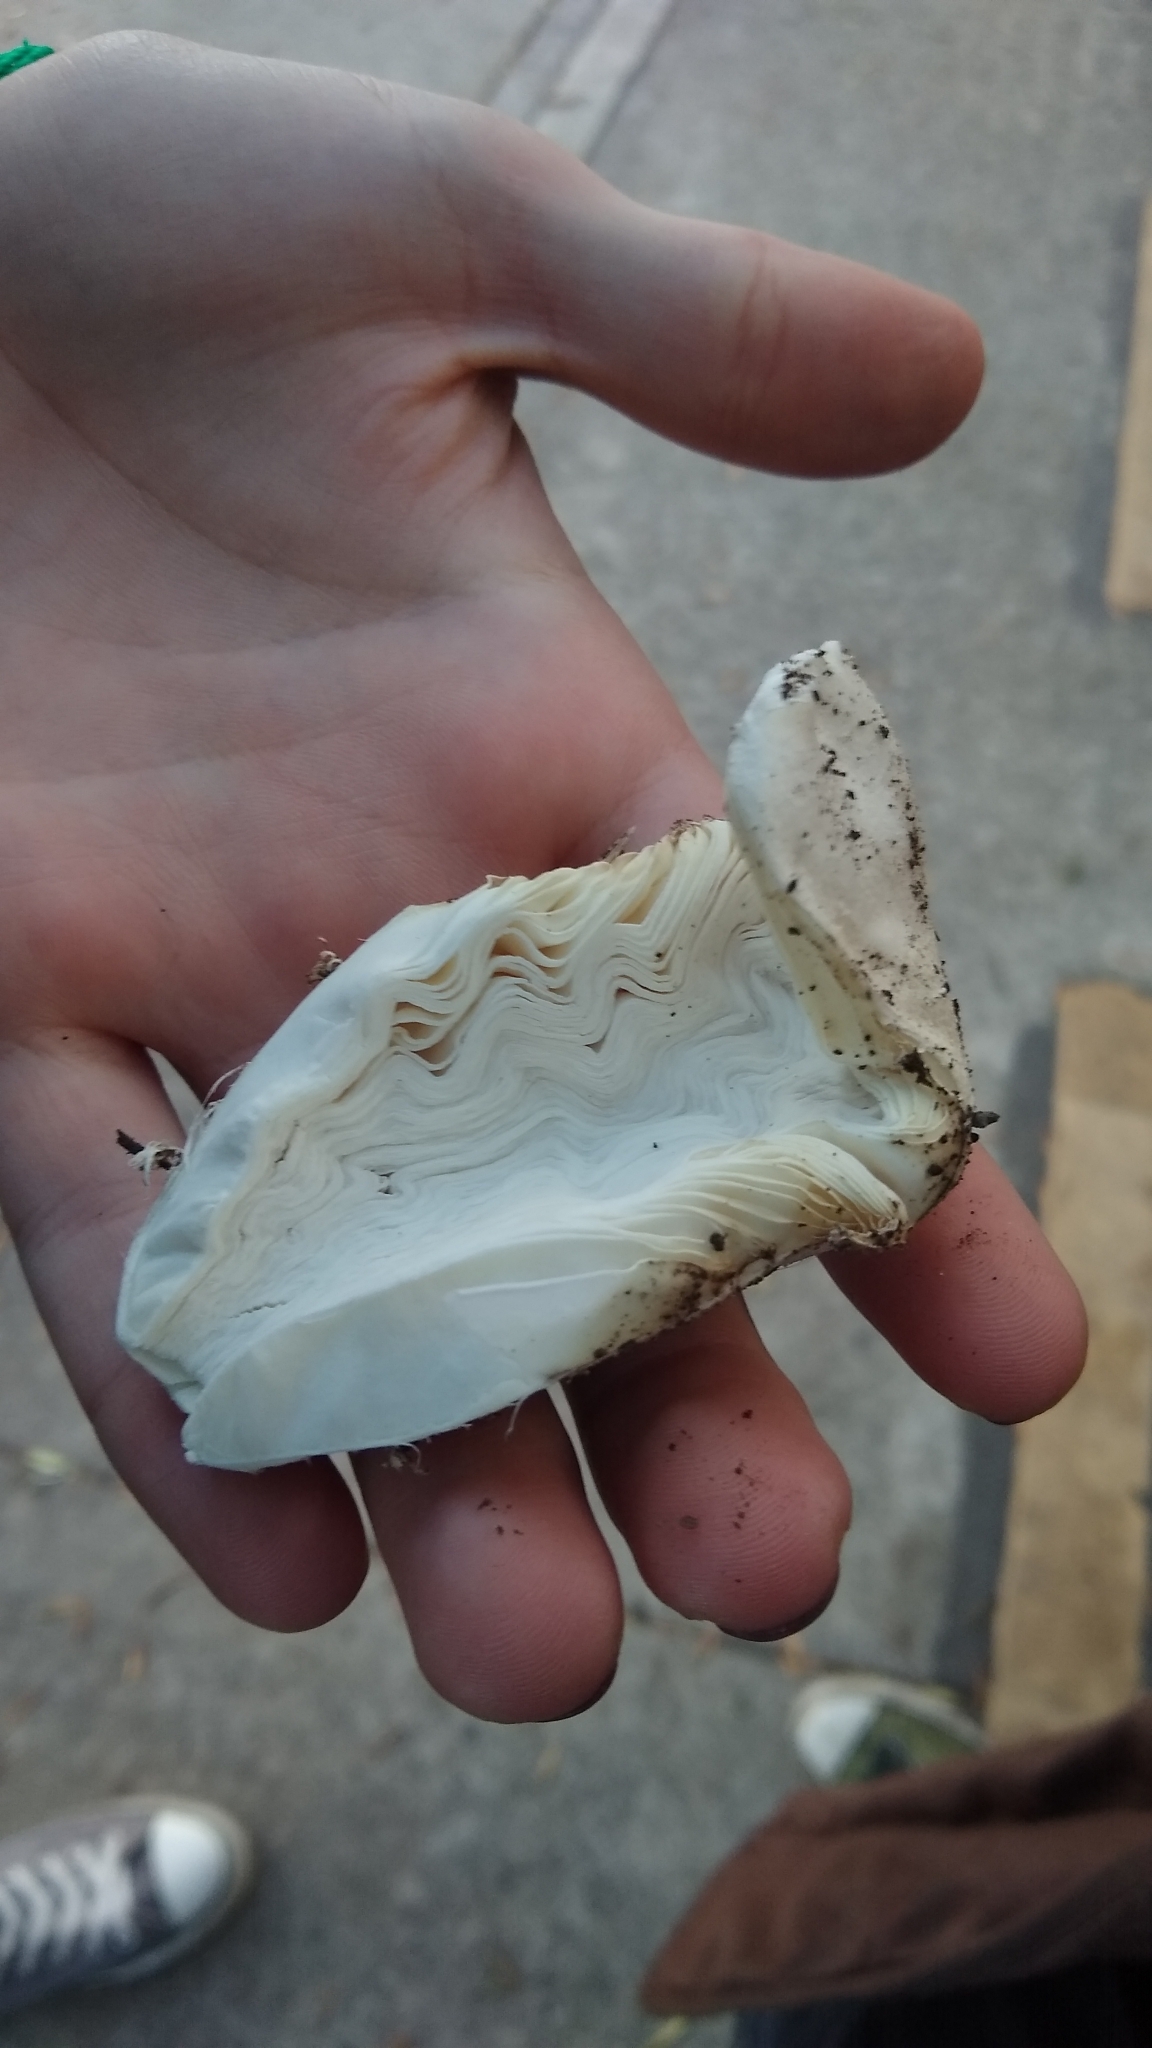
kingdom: Fungi
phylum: Basidiomycota
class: Agaricomycetes
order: Agaricales
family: Agaricaceae
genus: Coprinus
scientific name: Coprinus comatus
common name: Lawyer's wig
